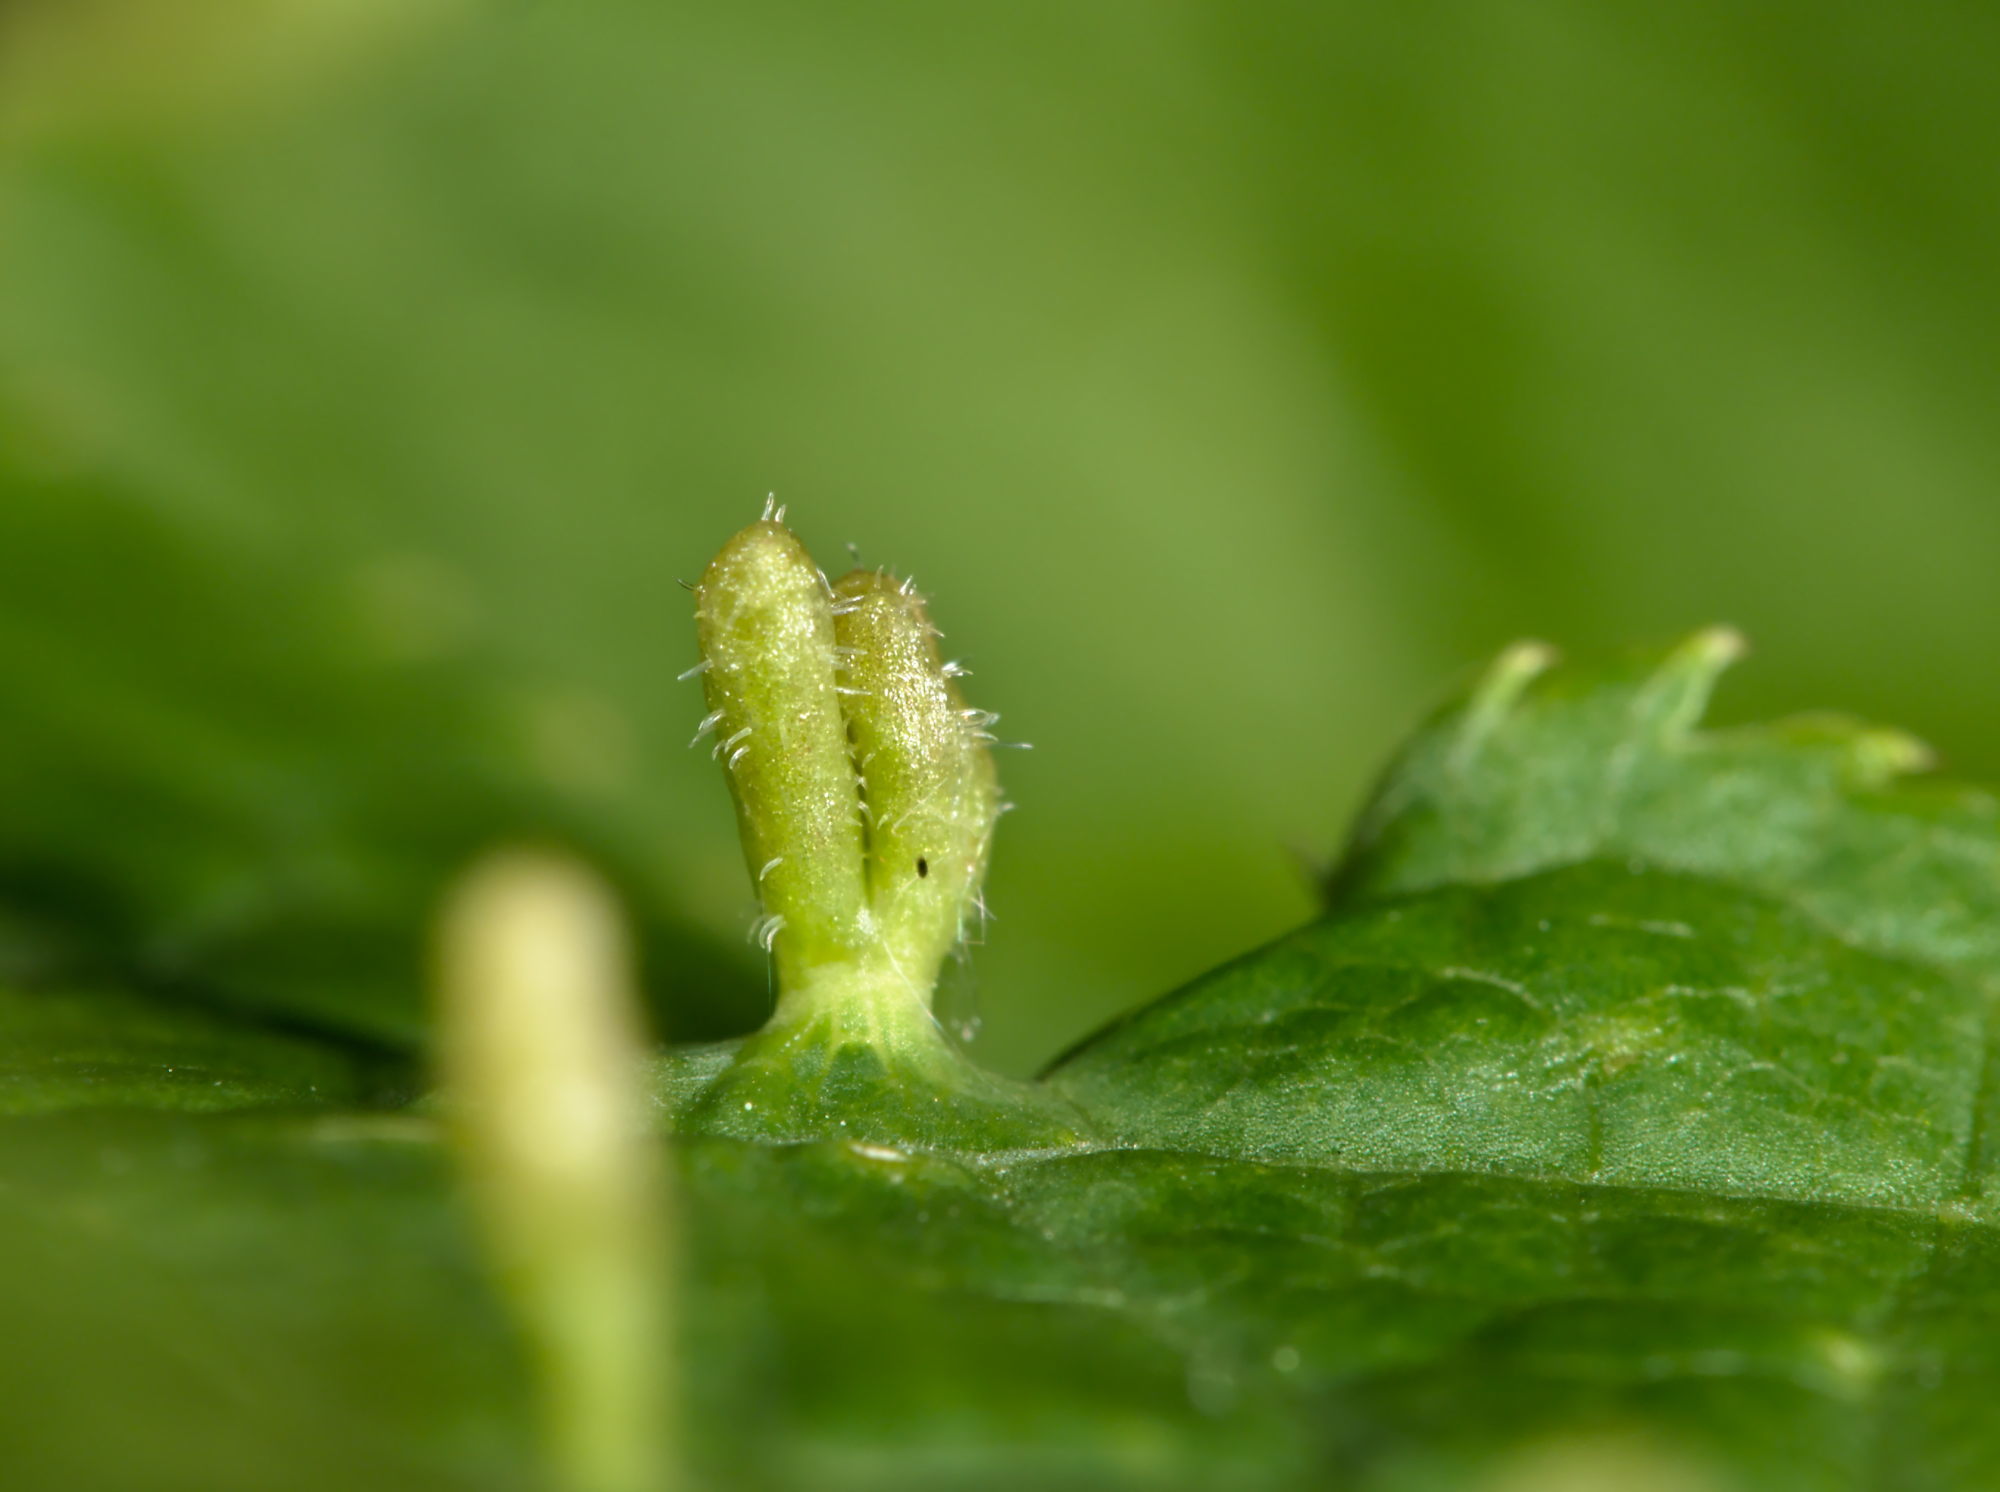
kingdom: Animalia
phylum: Arthropoda
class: Arachnida
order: Trombidiformes
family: Eriophyidae
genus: Phyllocoptes
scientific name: Phyllocoptes eupadi
